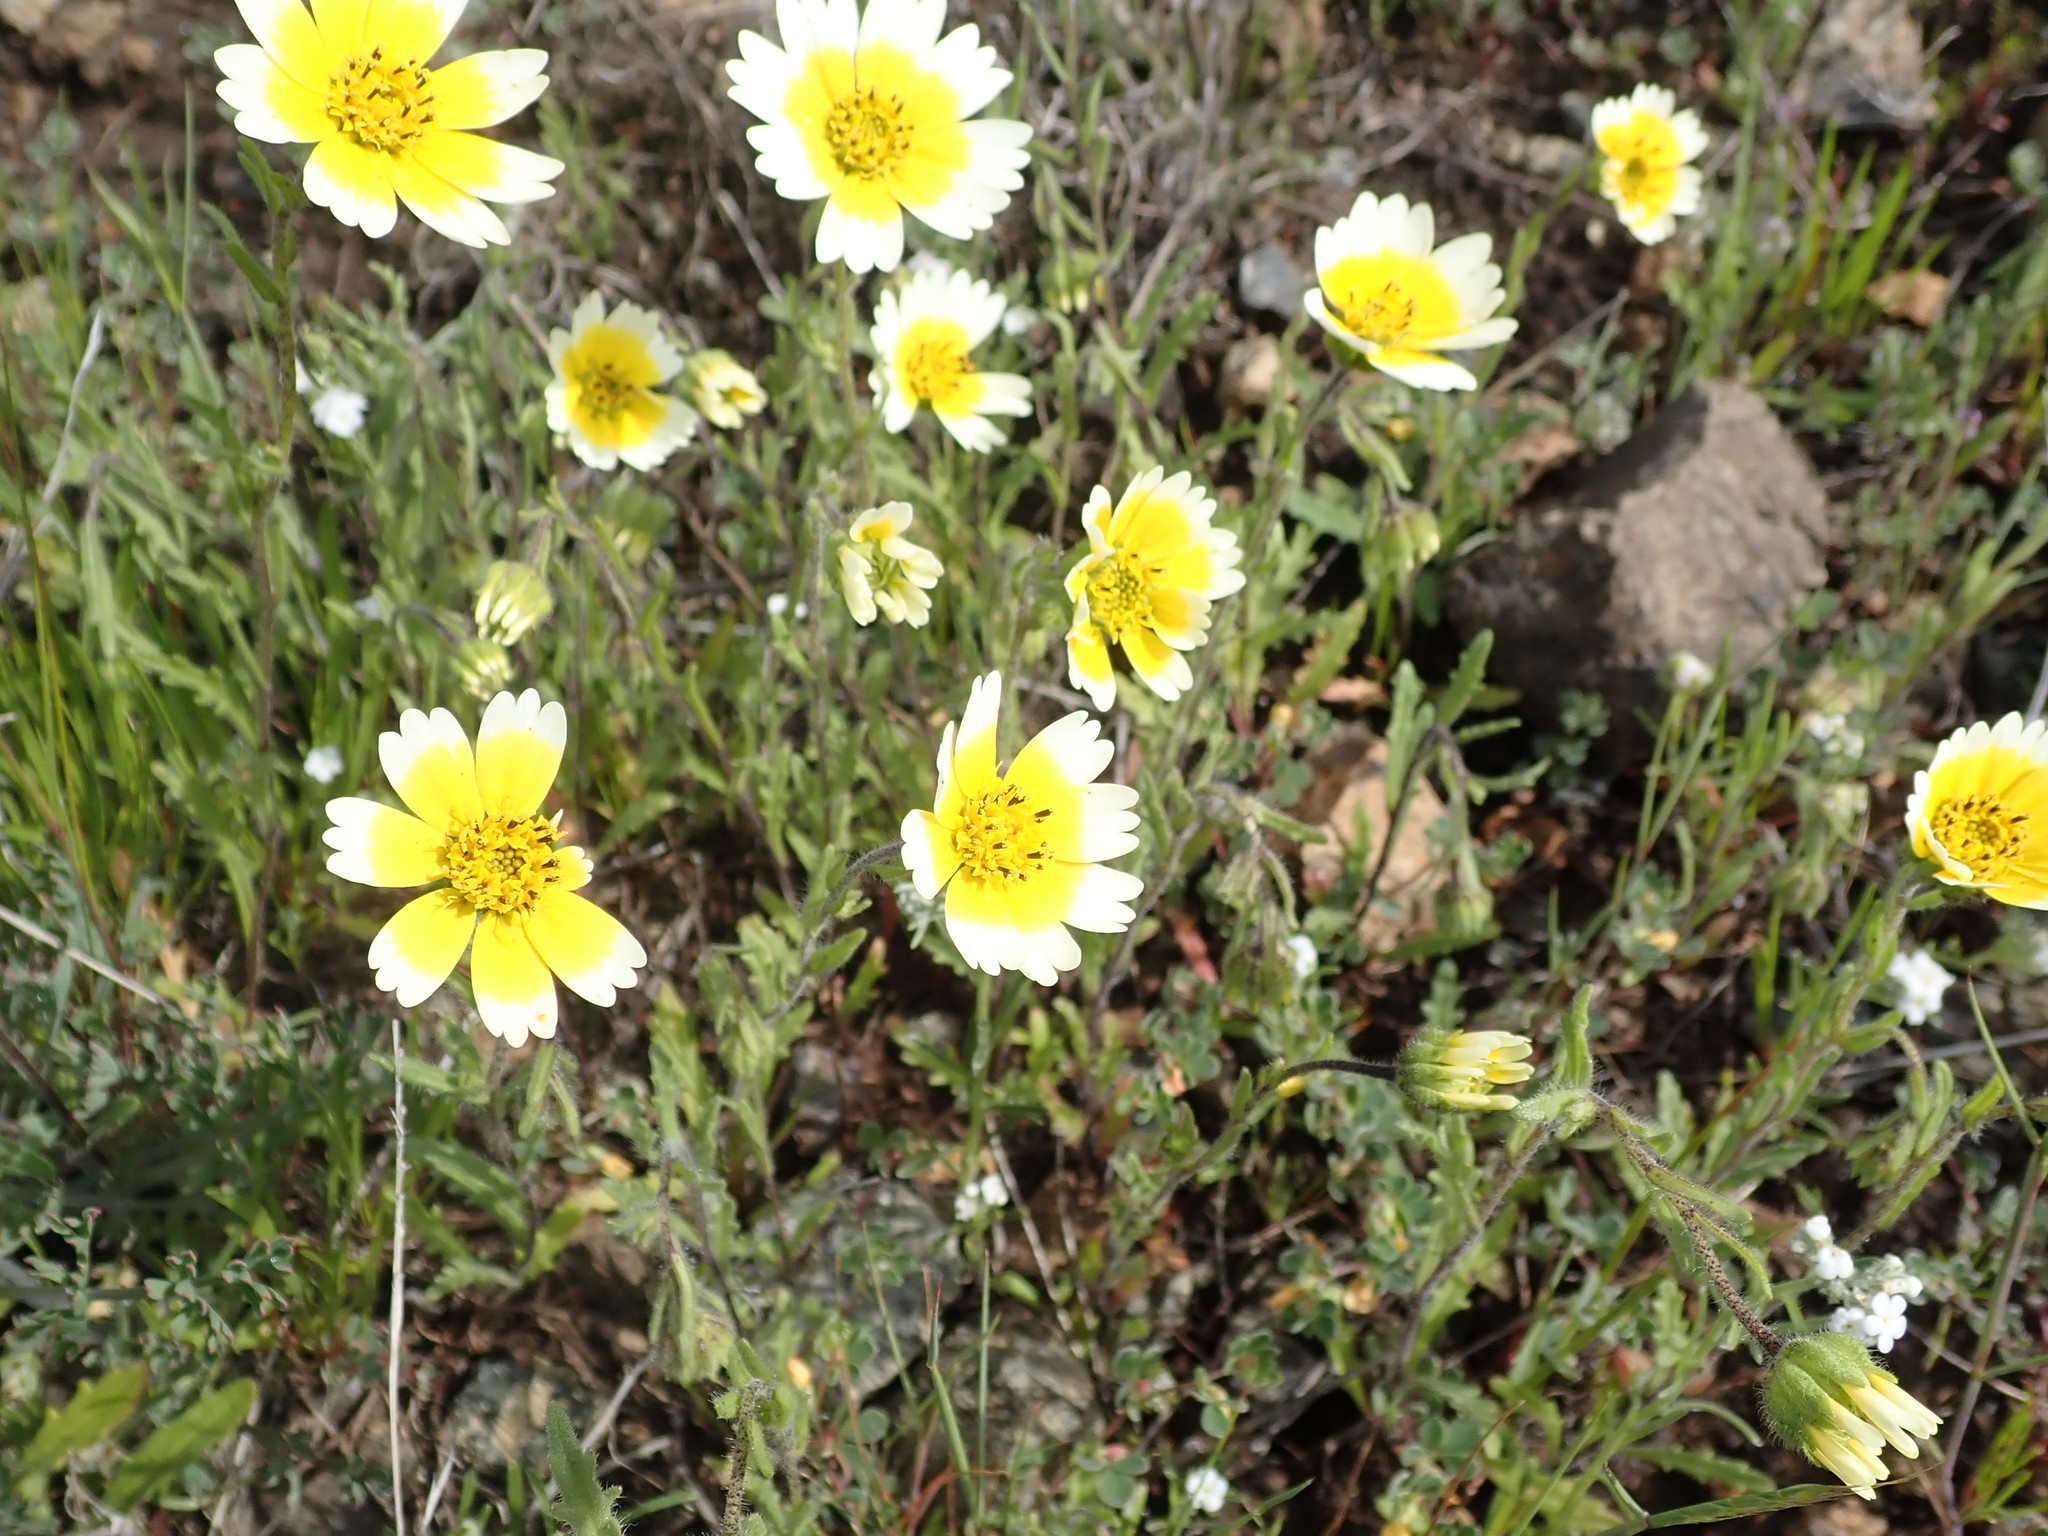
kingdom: Plantae
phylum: Tracheophyta
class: Magnoliopsida
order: Asterales
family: Asteraceae
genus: Layia
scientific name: Layia gaillardioides
